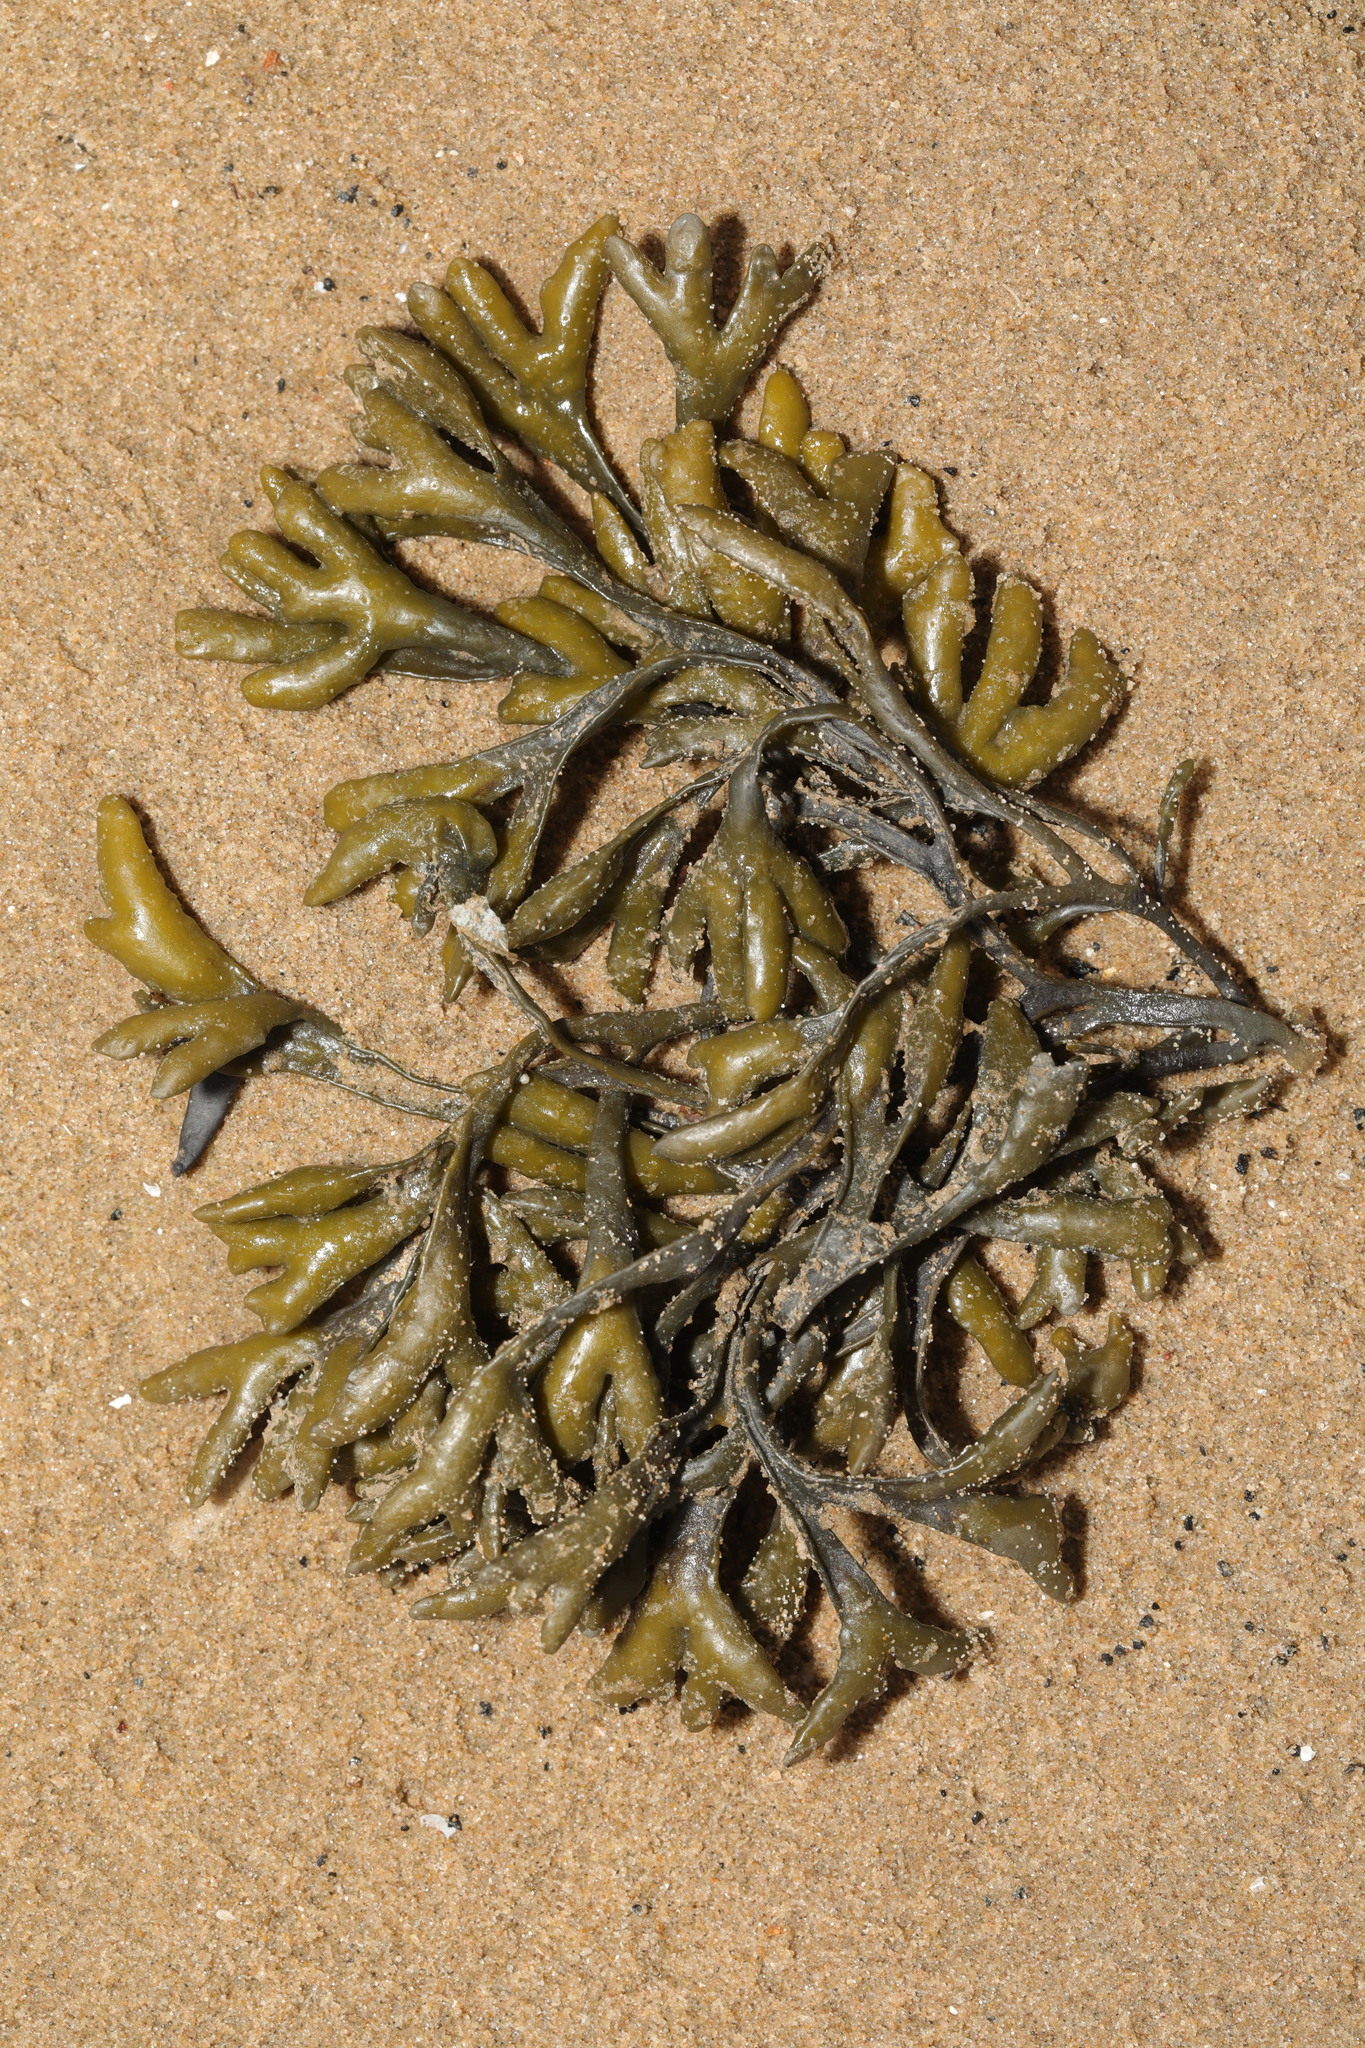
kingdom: Chromista
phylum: Ochrophyta
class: Phaeophyceae
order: Fucales
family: Fucaceae
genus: Fucus
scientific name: Fucus vesiculosus
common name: Bladder wrack
